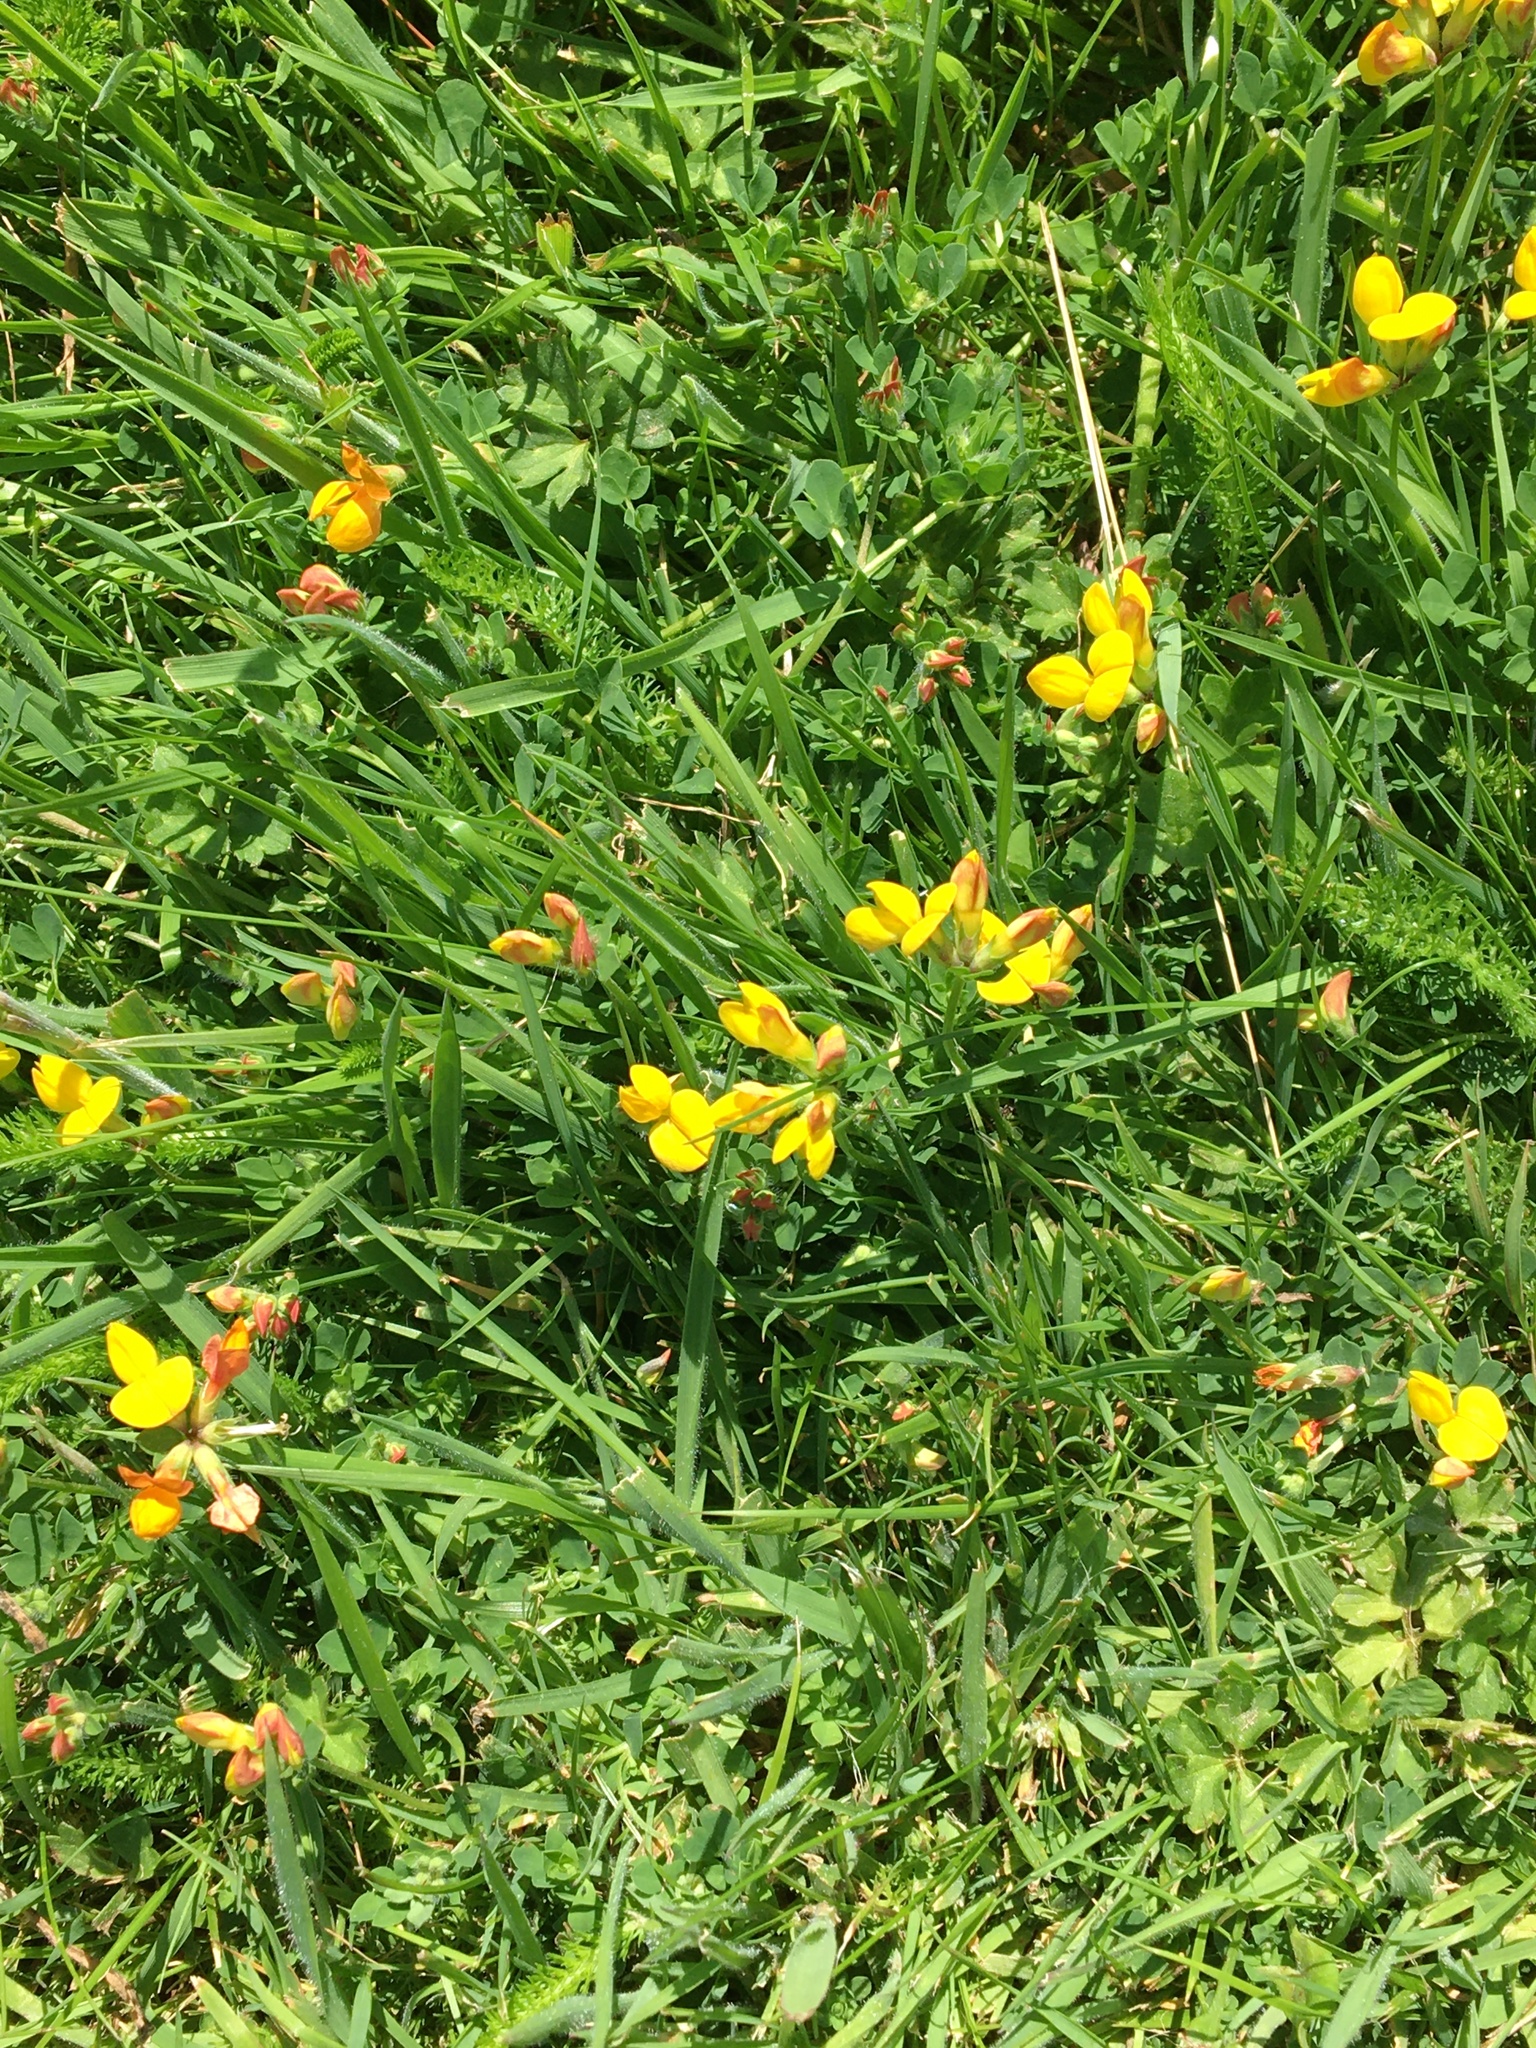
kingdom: Plantae
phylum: Tracheophyta
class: Magnoliopsida
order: Fabales
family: Fabaceae
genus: Lotus
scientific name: Lotus corniculatus
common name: Common bird's-foot-trefoil
